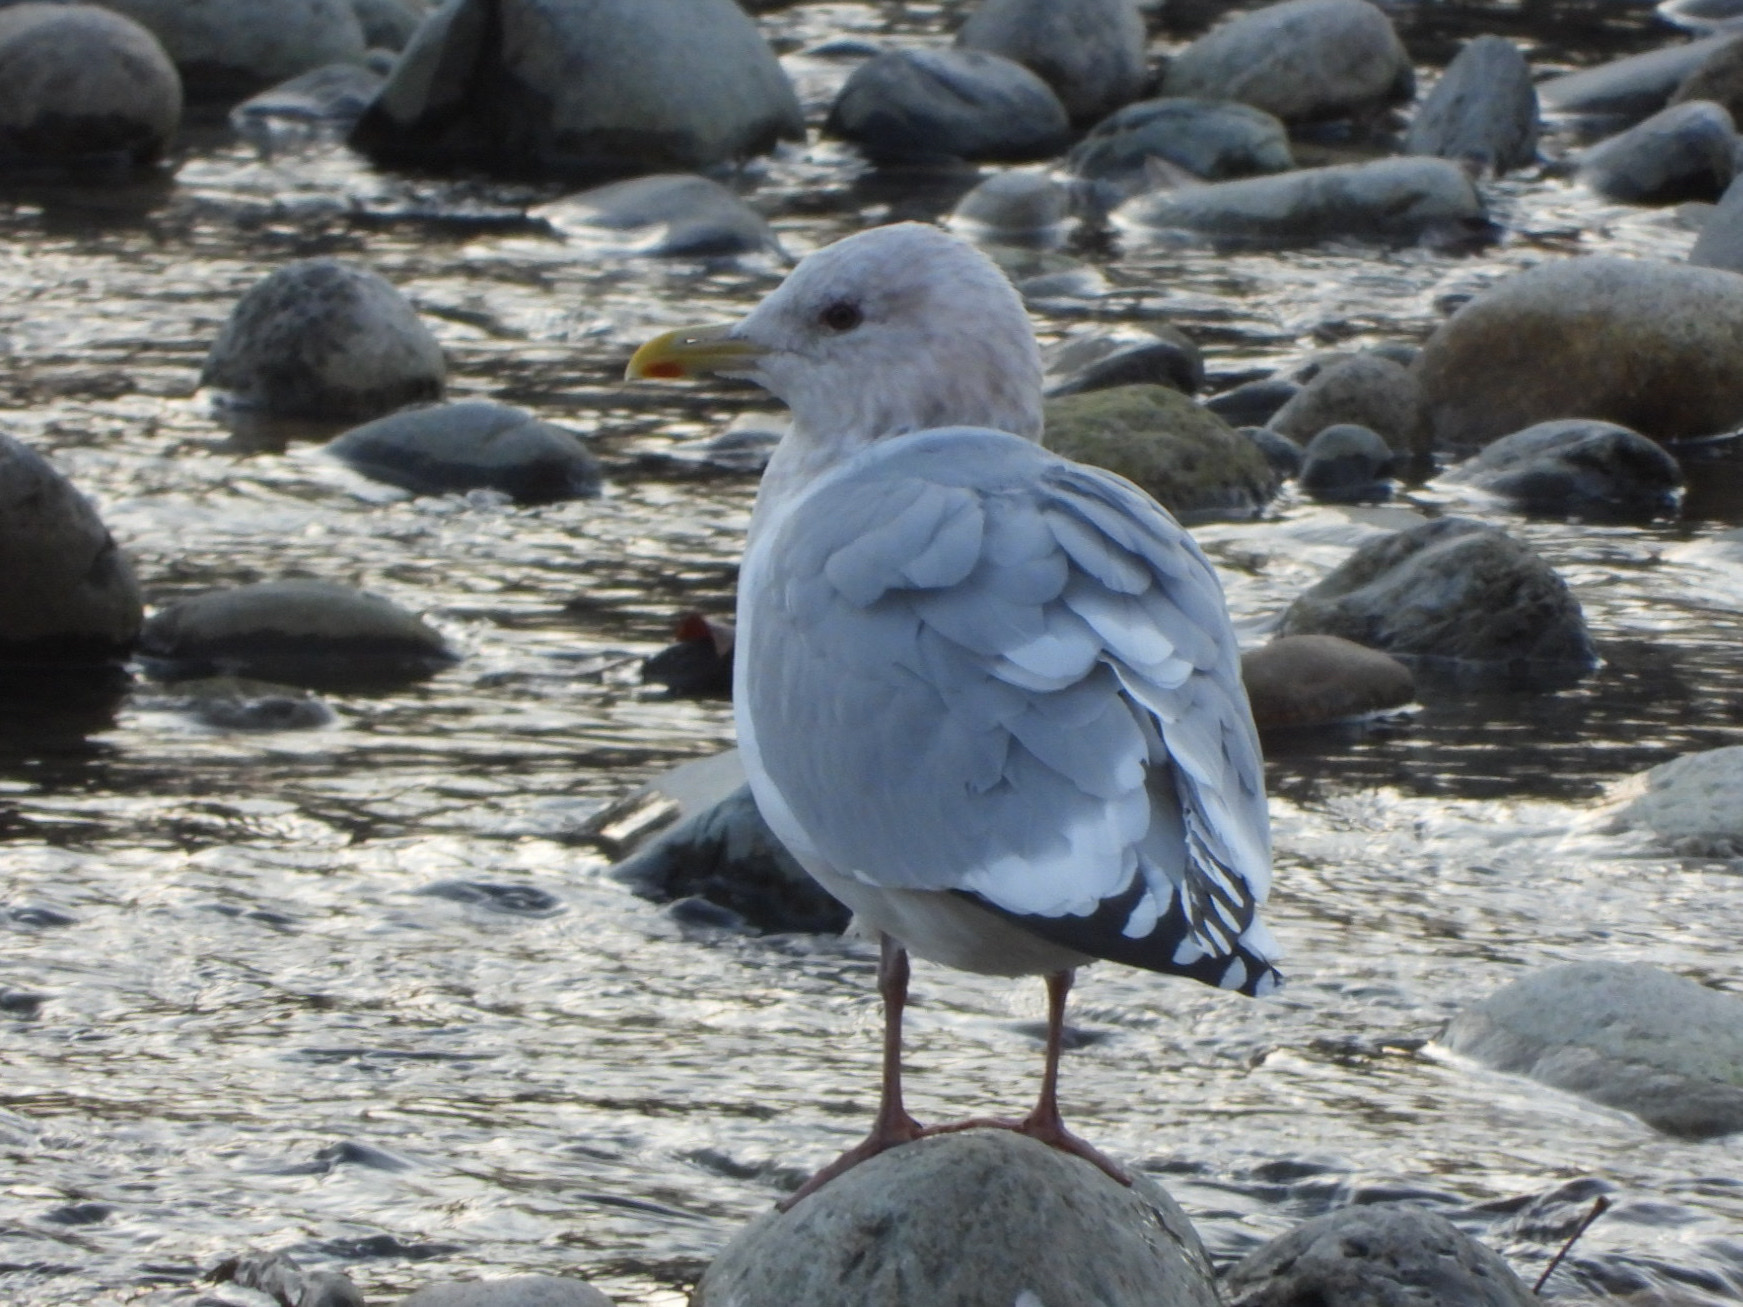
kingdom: Animalia
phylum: Chordata
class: Aves
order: Charadriiformes
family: Laridae
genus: Larus
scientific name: Larus glaucoides
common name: Iceland gull
